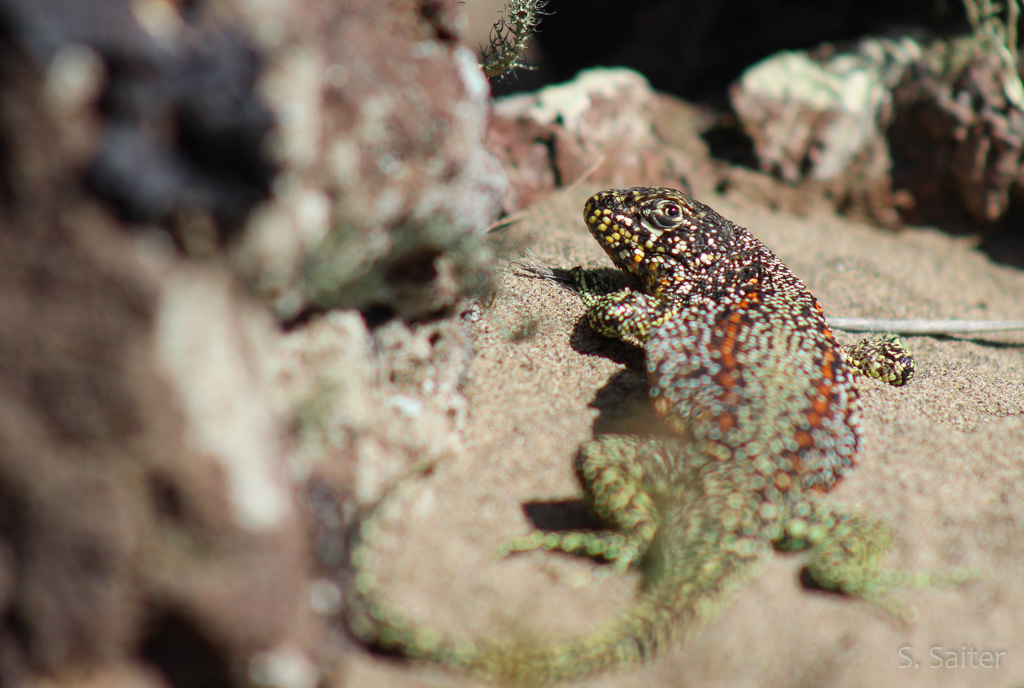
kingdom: Animalia
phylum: Chordata
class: Squamata
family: Liolaemidae
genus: Liolaemus
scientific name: Liolaemus sarmientoi
